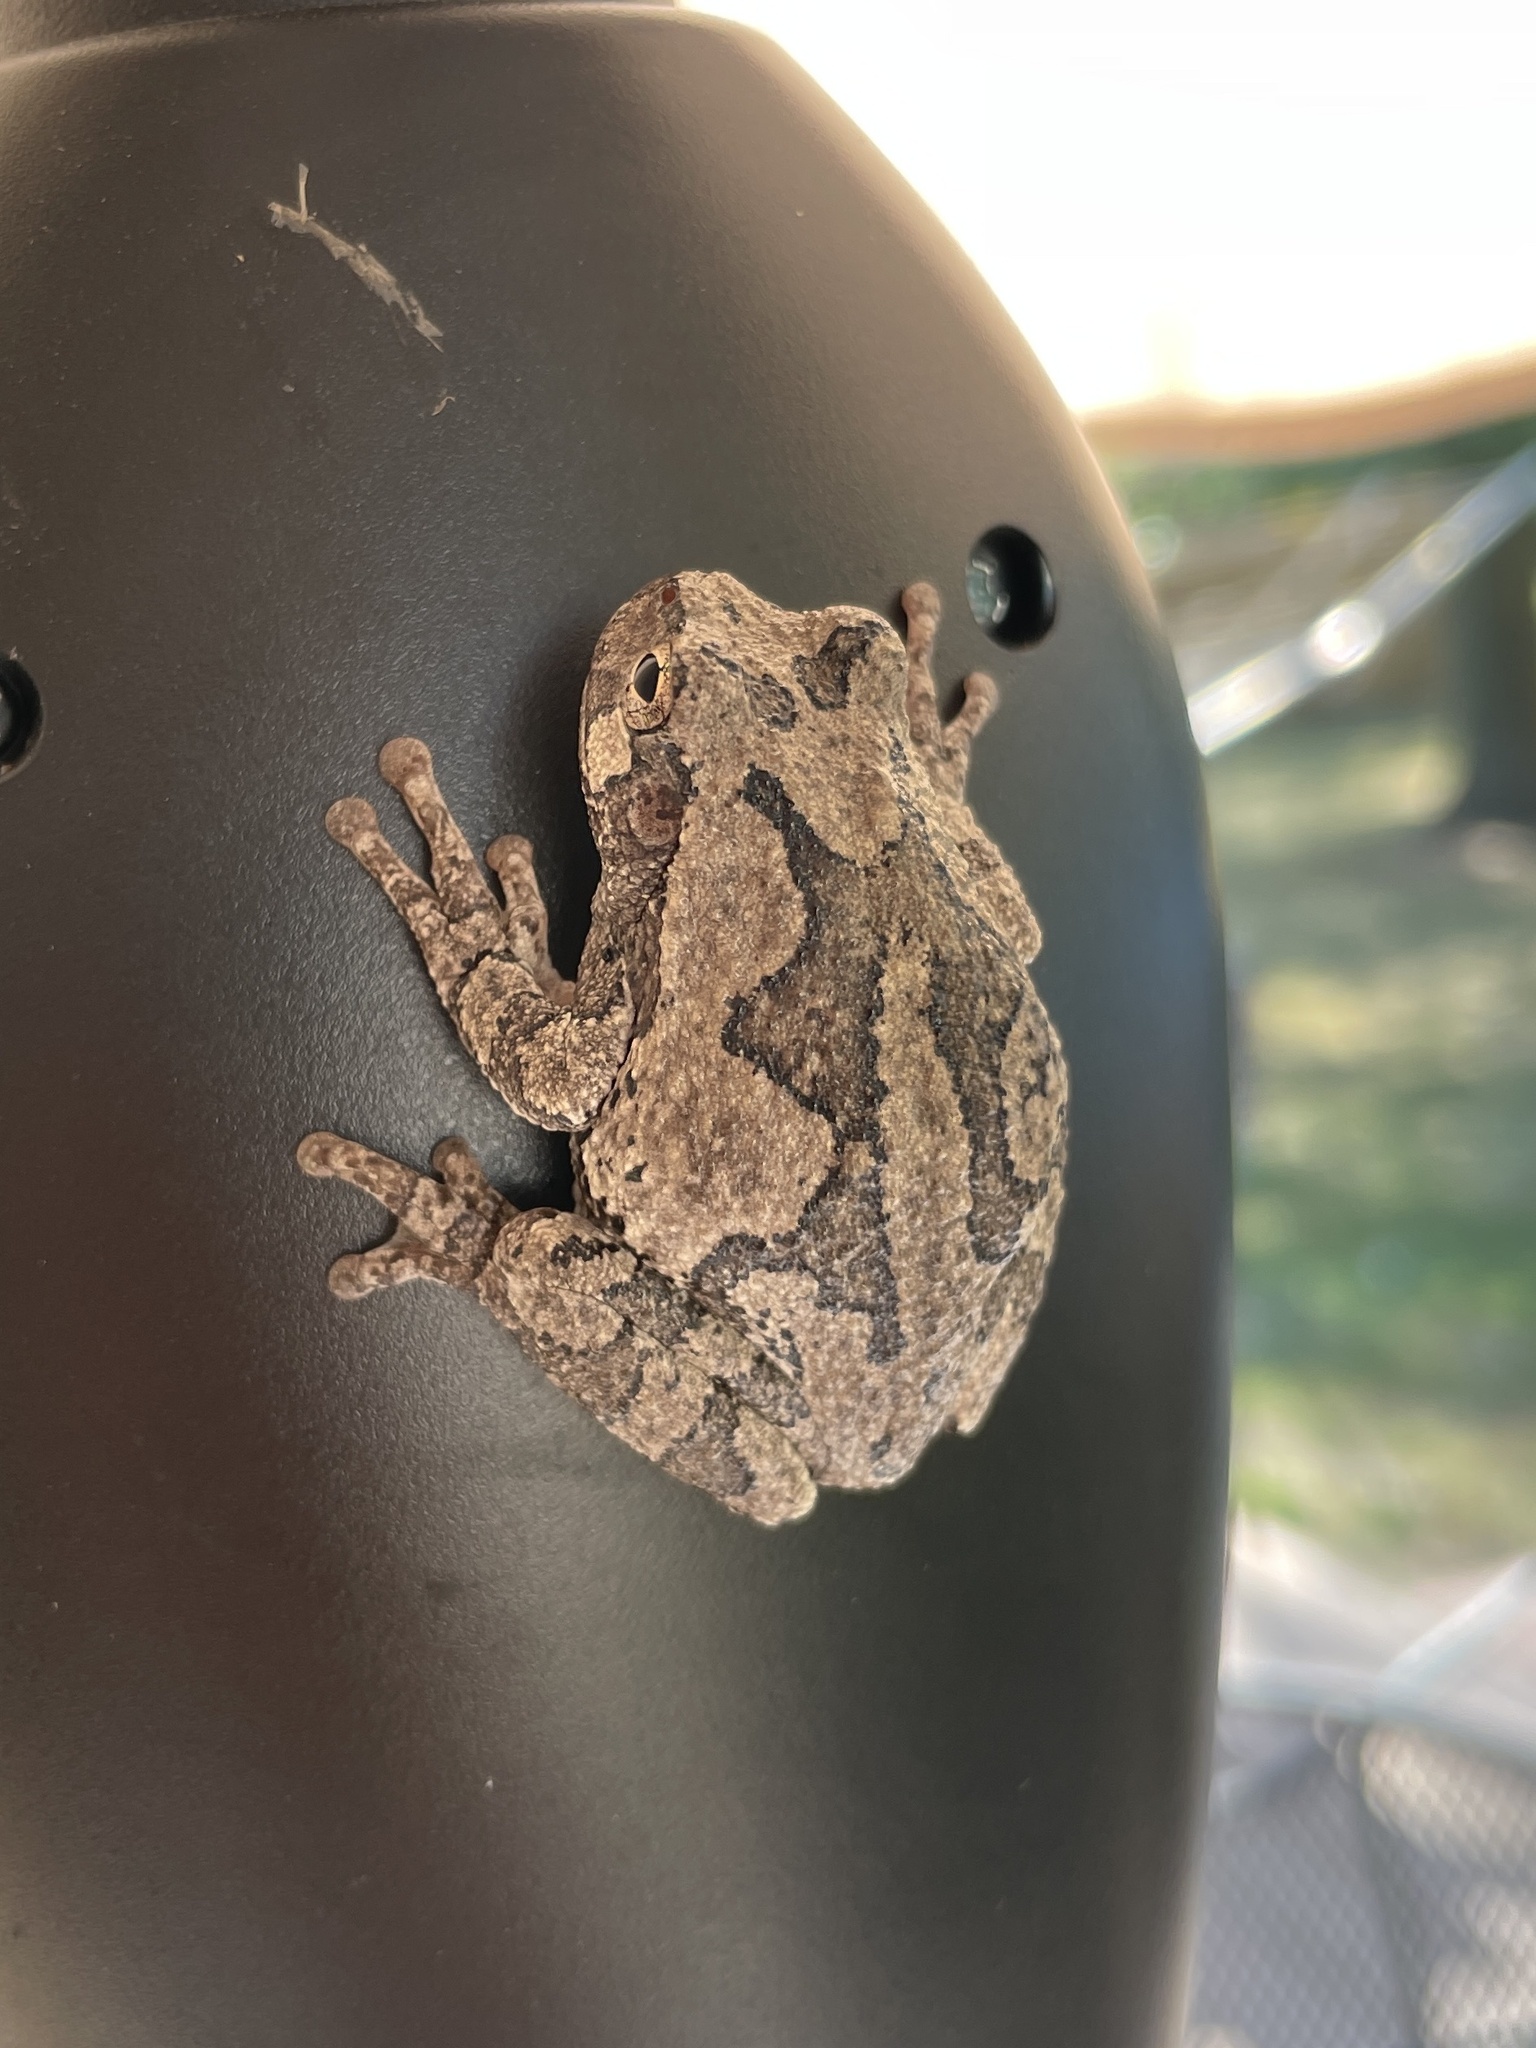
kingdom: Animalia
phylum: Chordata
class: Amphibia
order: Anura
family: Hylidae
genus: Hyla
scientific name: Hyla
